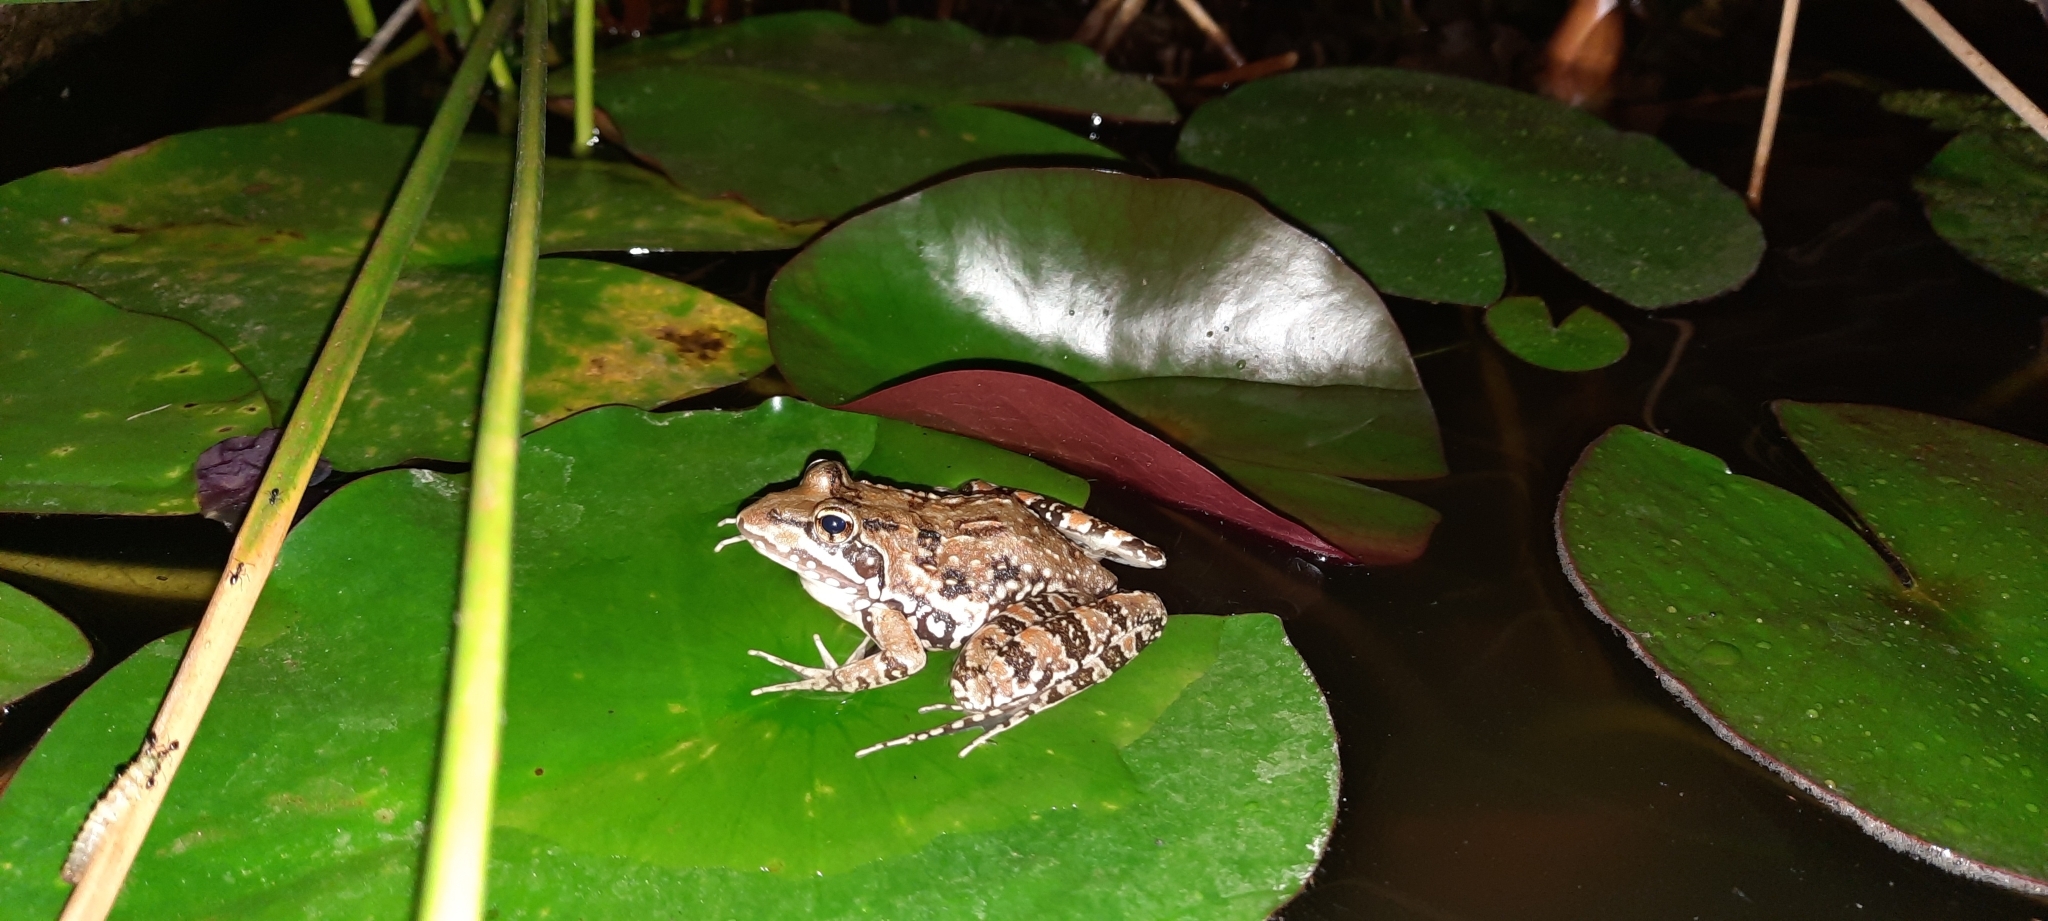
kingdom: Animalia
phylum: Chordata
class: Amphibia
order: Anura
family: Pyxicephalidae
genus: Amietia
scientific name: Amietia delalandii
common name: Delalande's river frog
